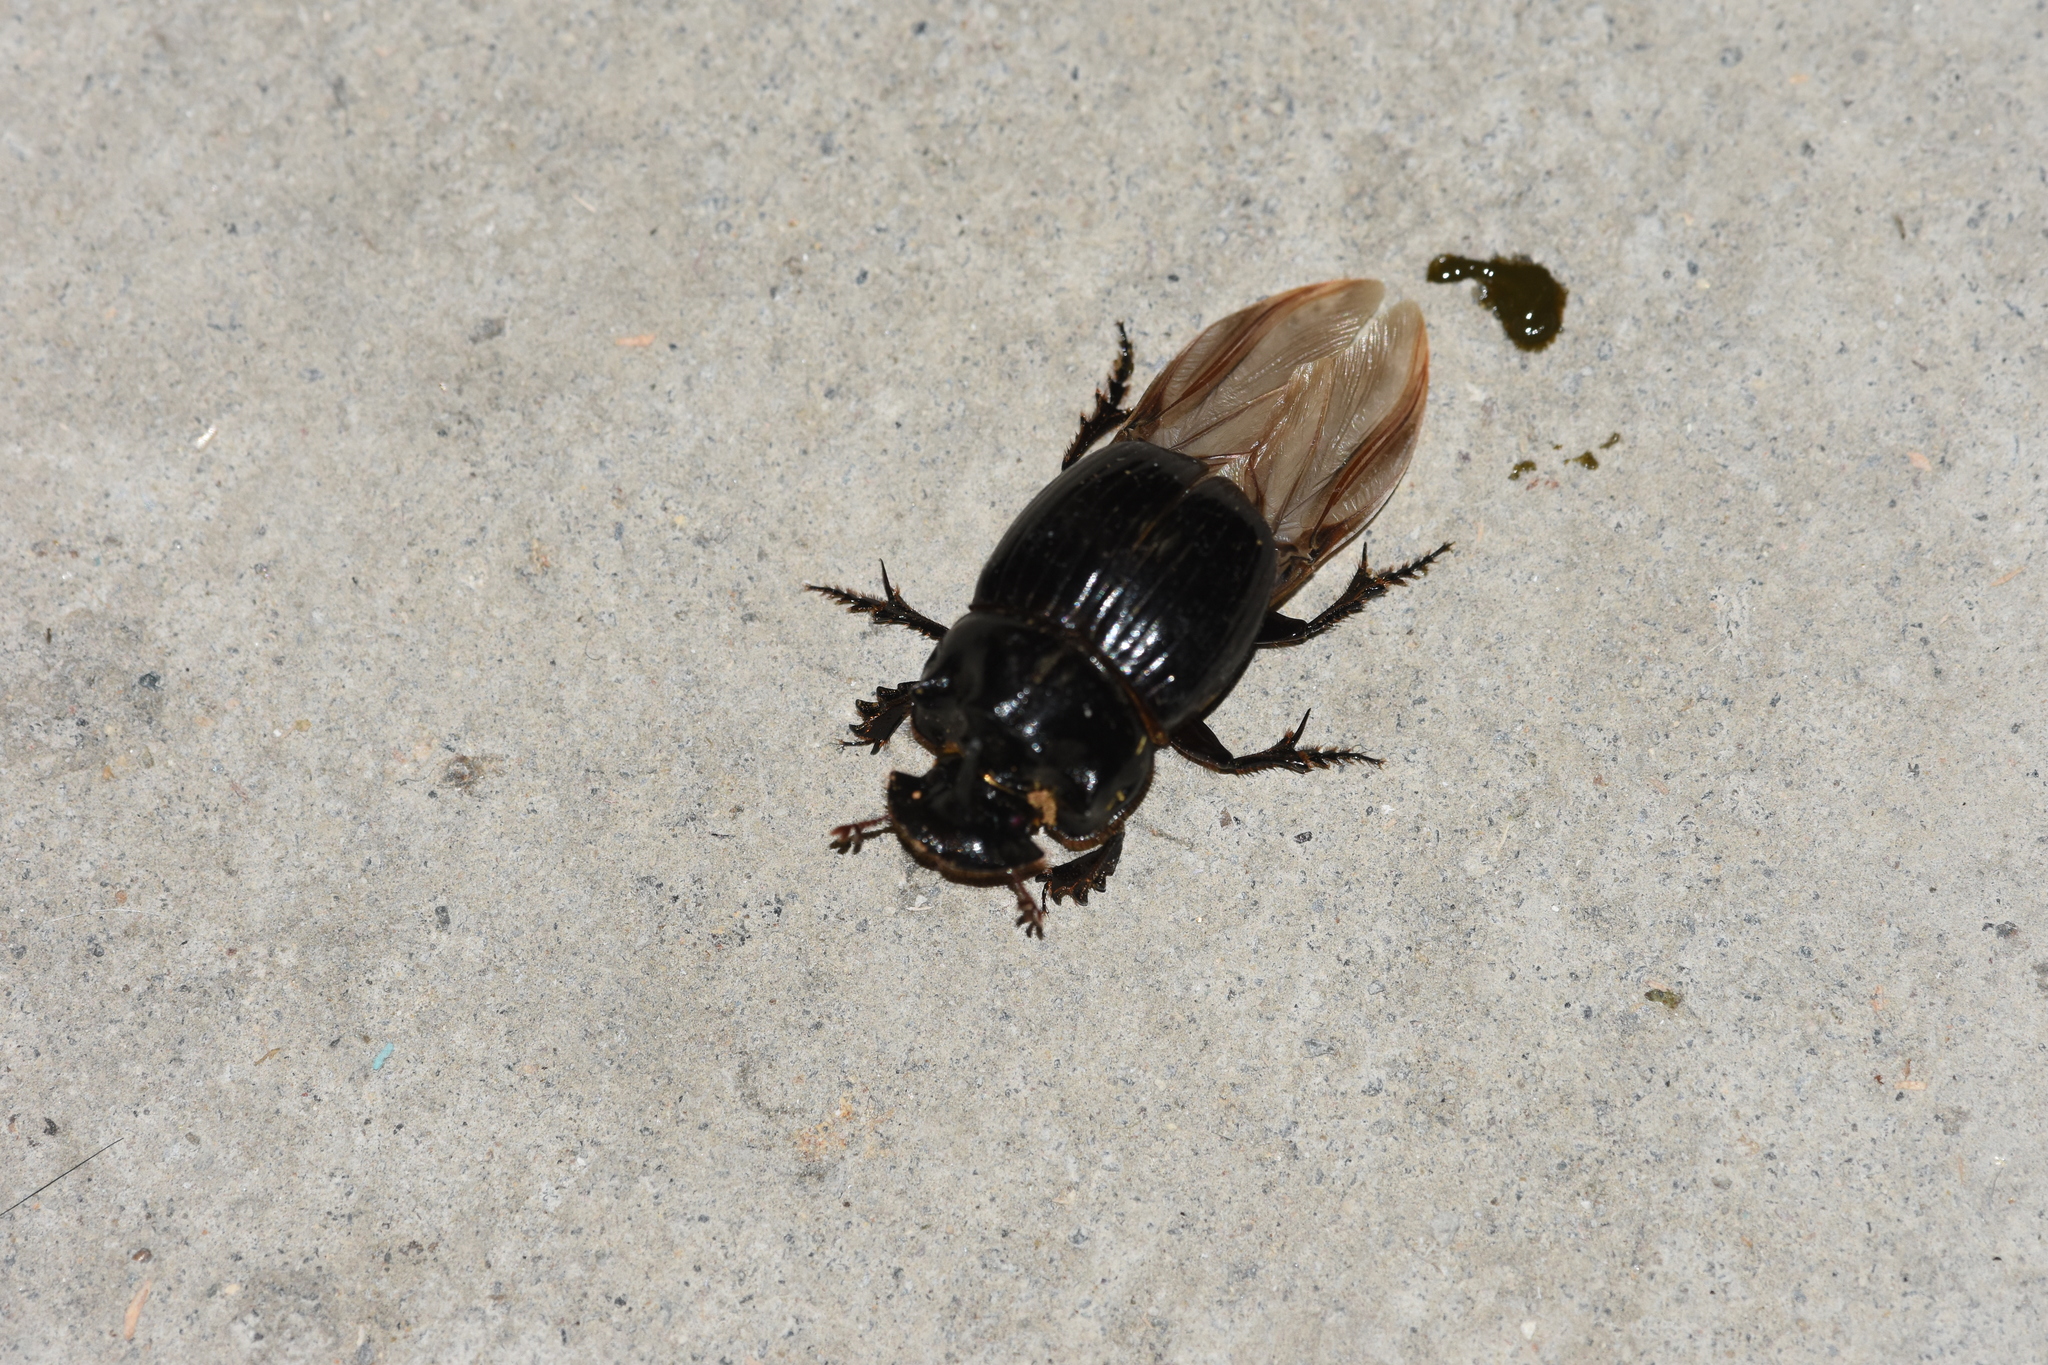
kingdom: Animalia
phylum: Arthropoda
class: Insecta
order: Coleoptera
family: Scarabaeidae
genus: Copris
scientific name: Copris lunaris
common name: Horned dung beetle
